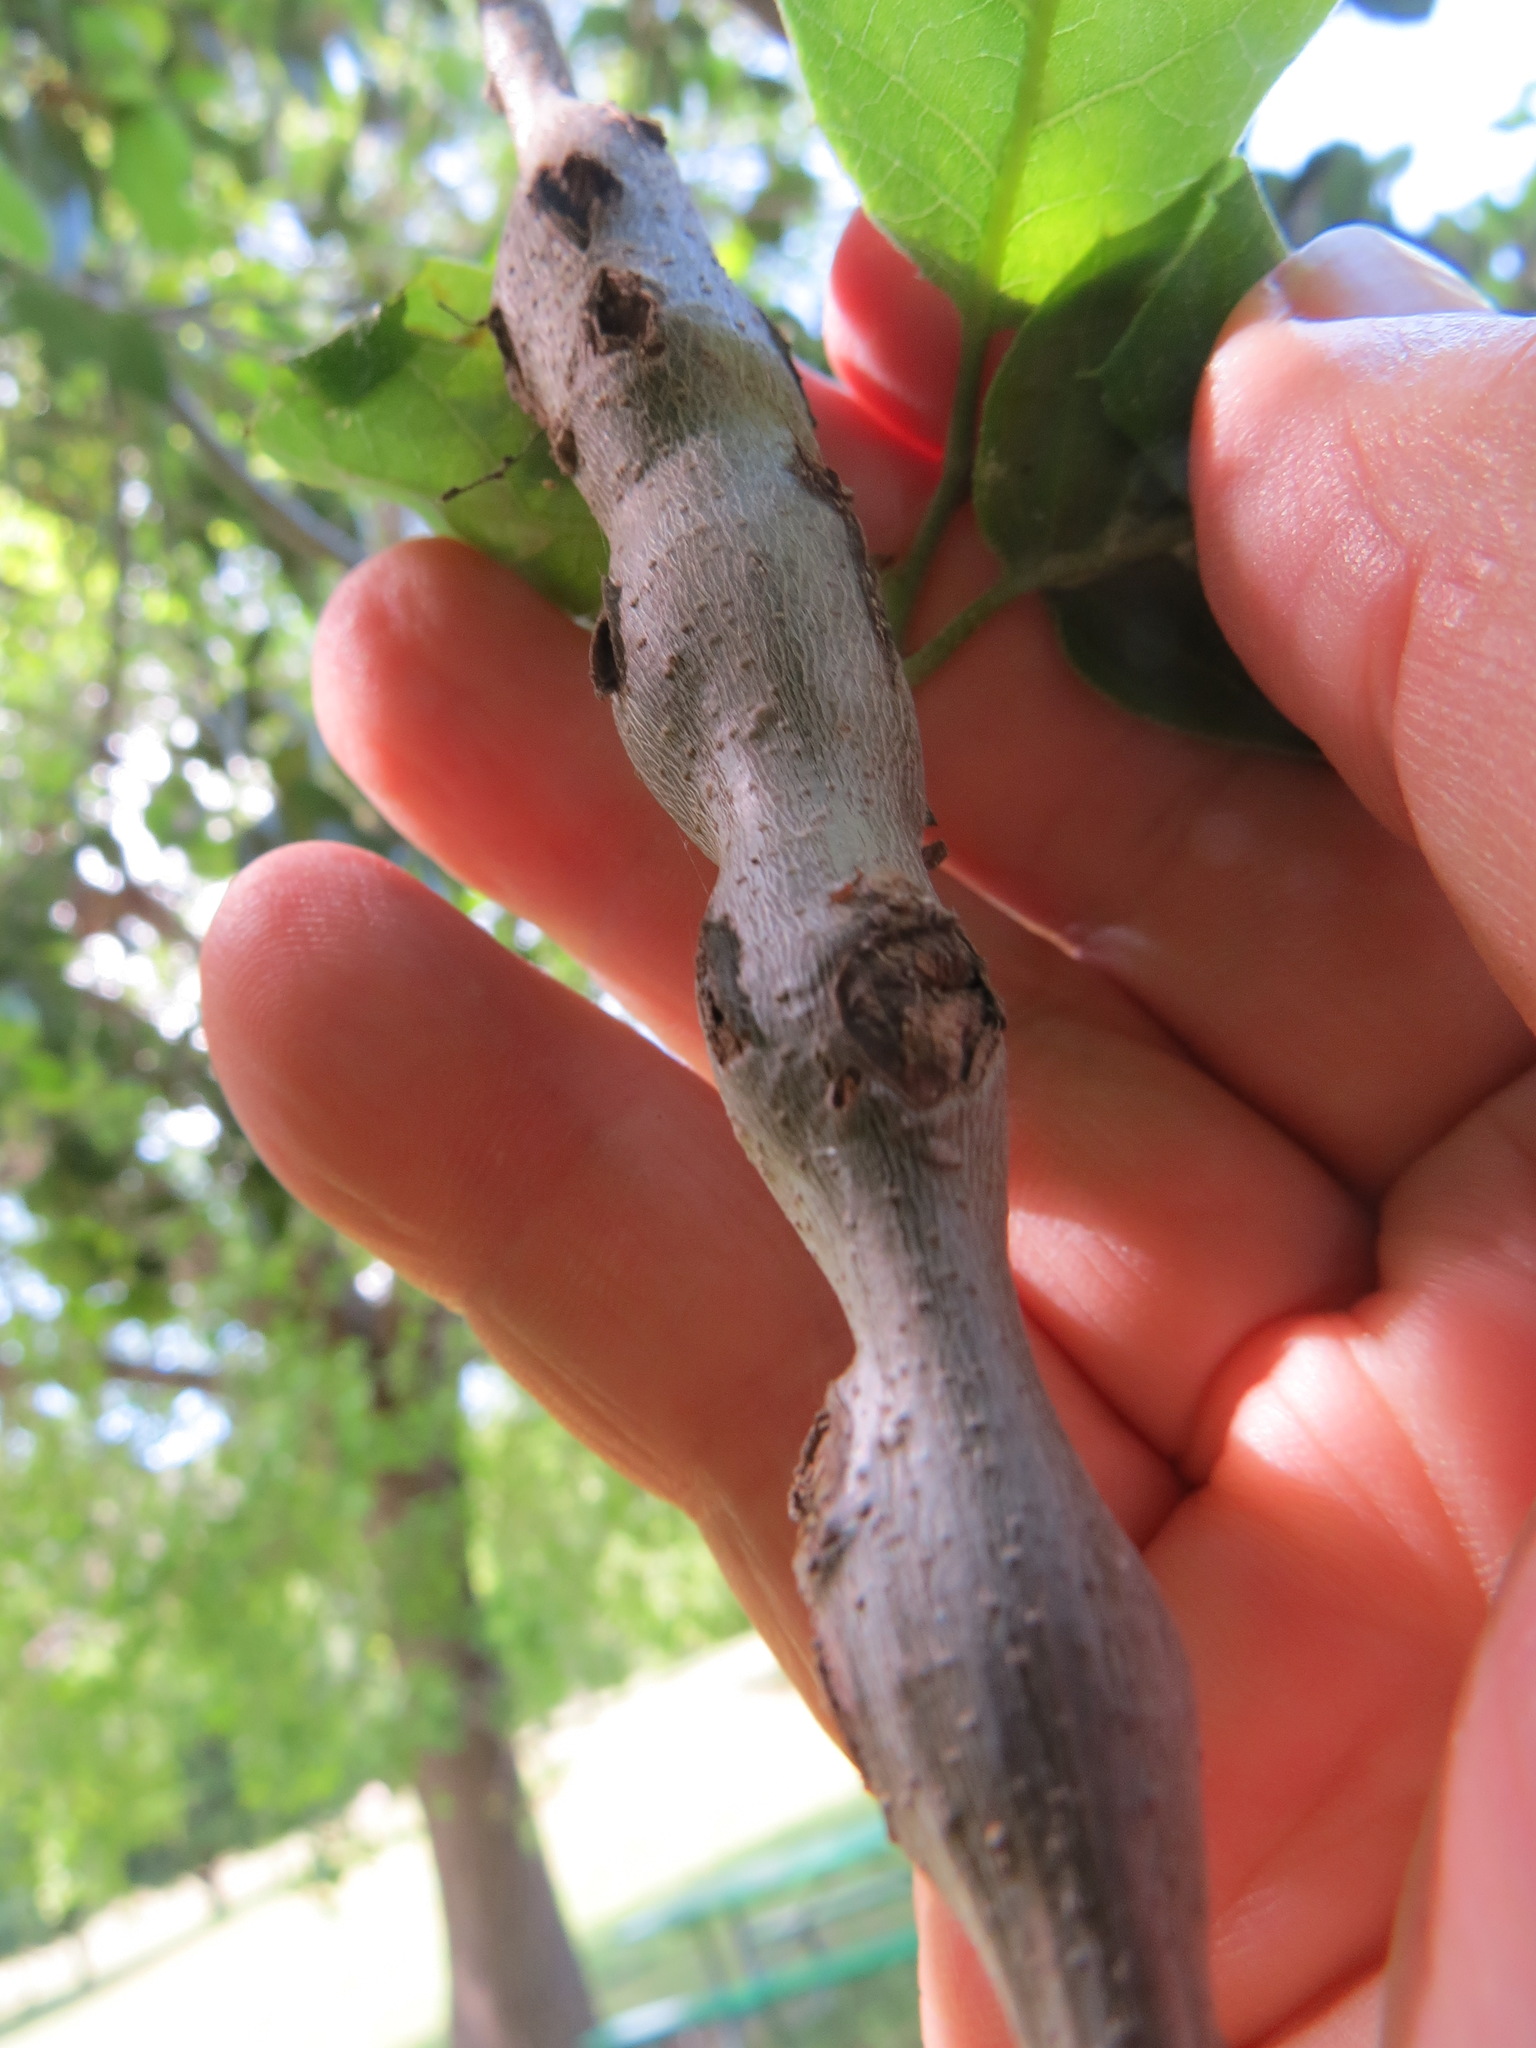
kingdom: Animalia
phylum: Arthropoda
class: Insecta
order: Hymenoptera
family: Cynipidae
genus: Callirhytis
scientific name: Callirhytis
